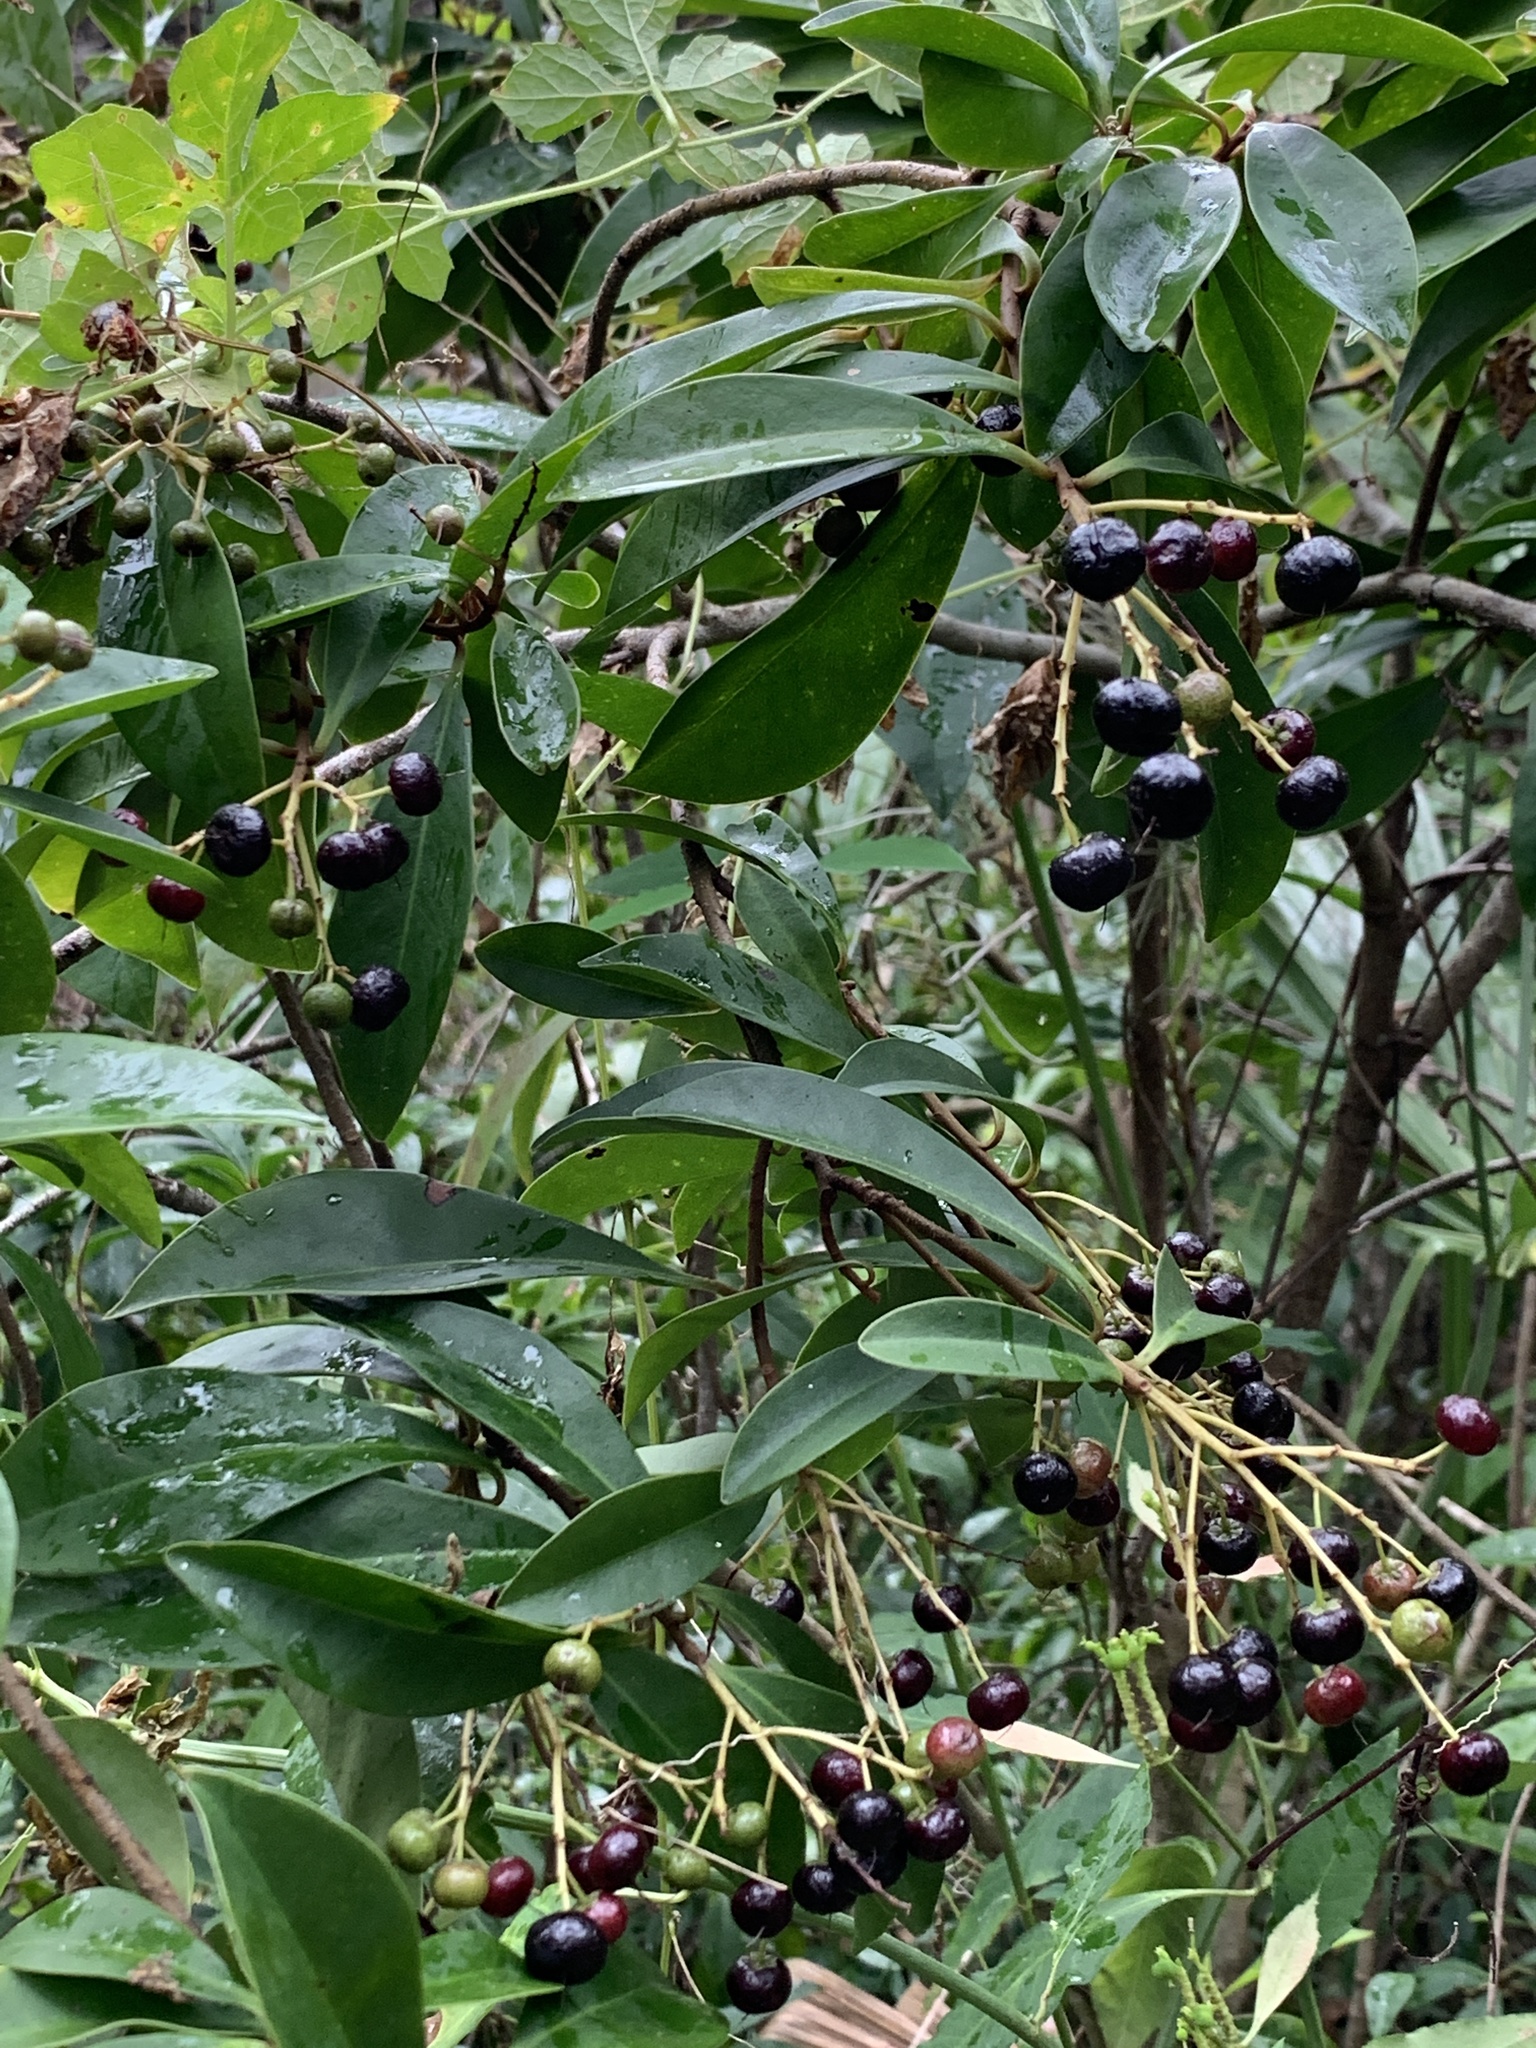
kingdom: Plantae
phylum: Tracheophyta
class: Magnoliopsida
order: Ericales
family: Primulaceae
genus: Ardisia
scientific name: Ardisia escallonioides
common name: Island marlberry
